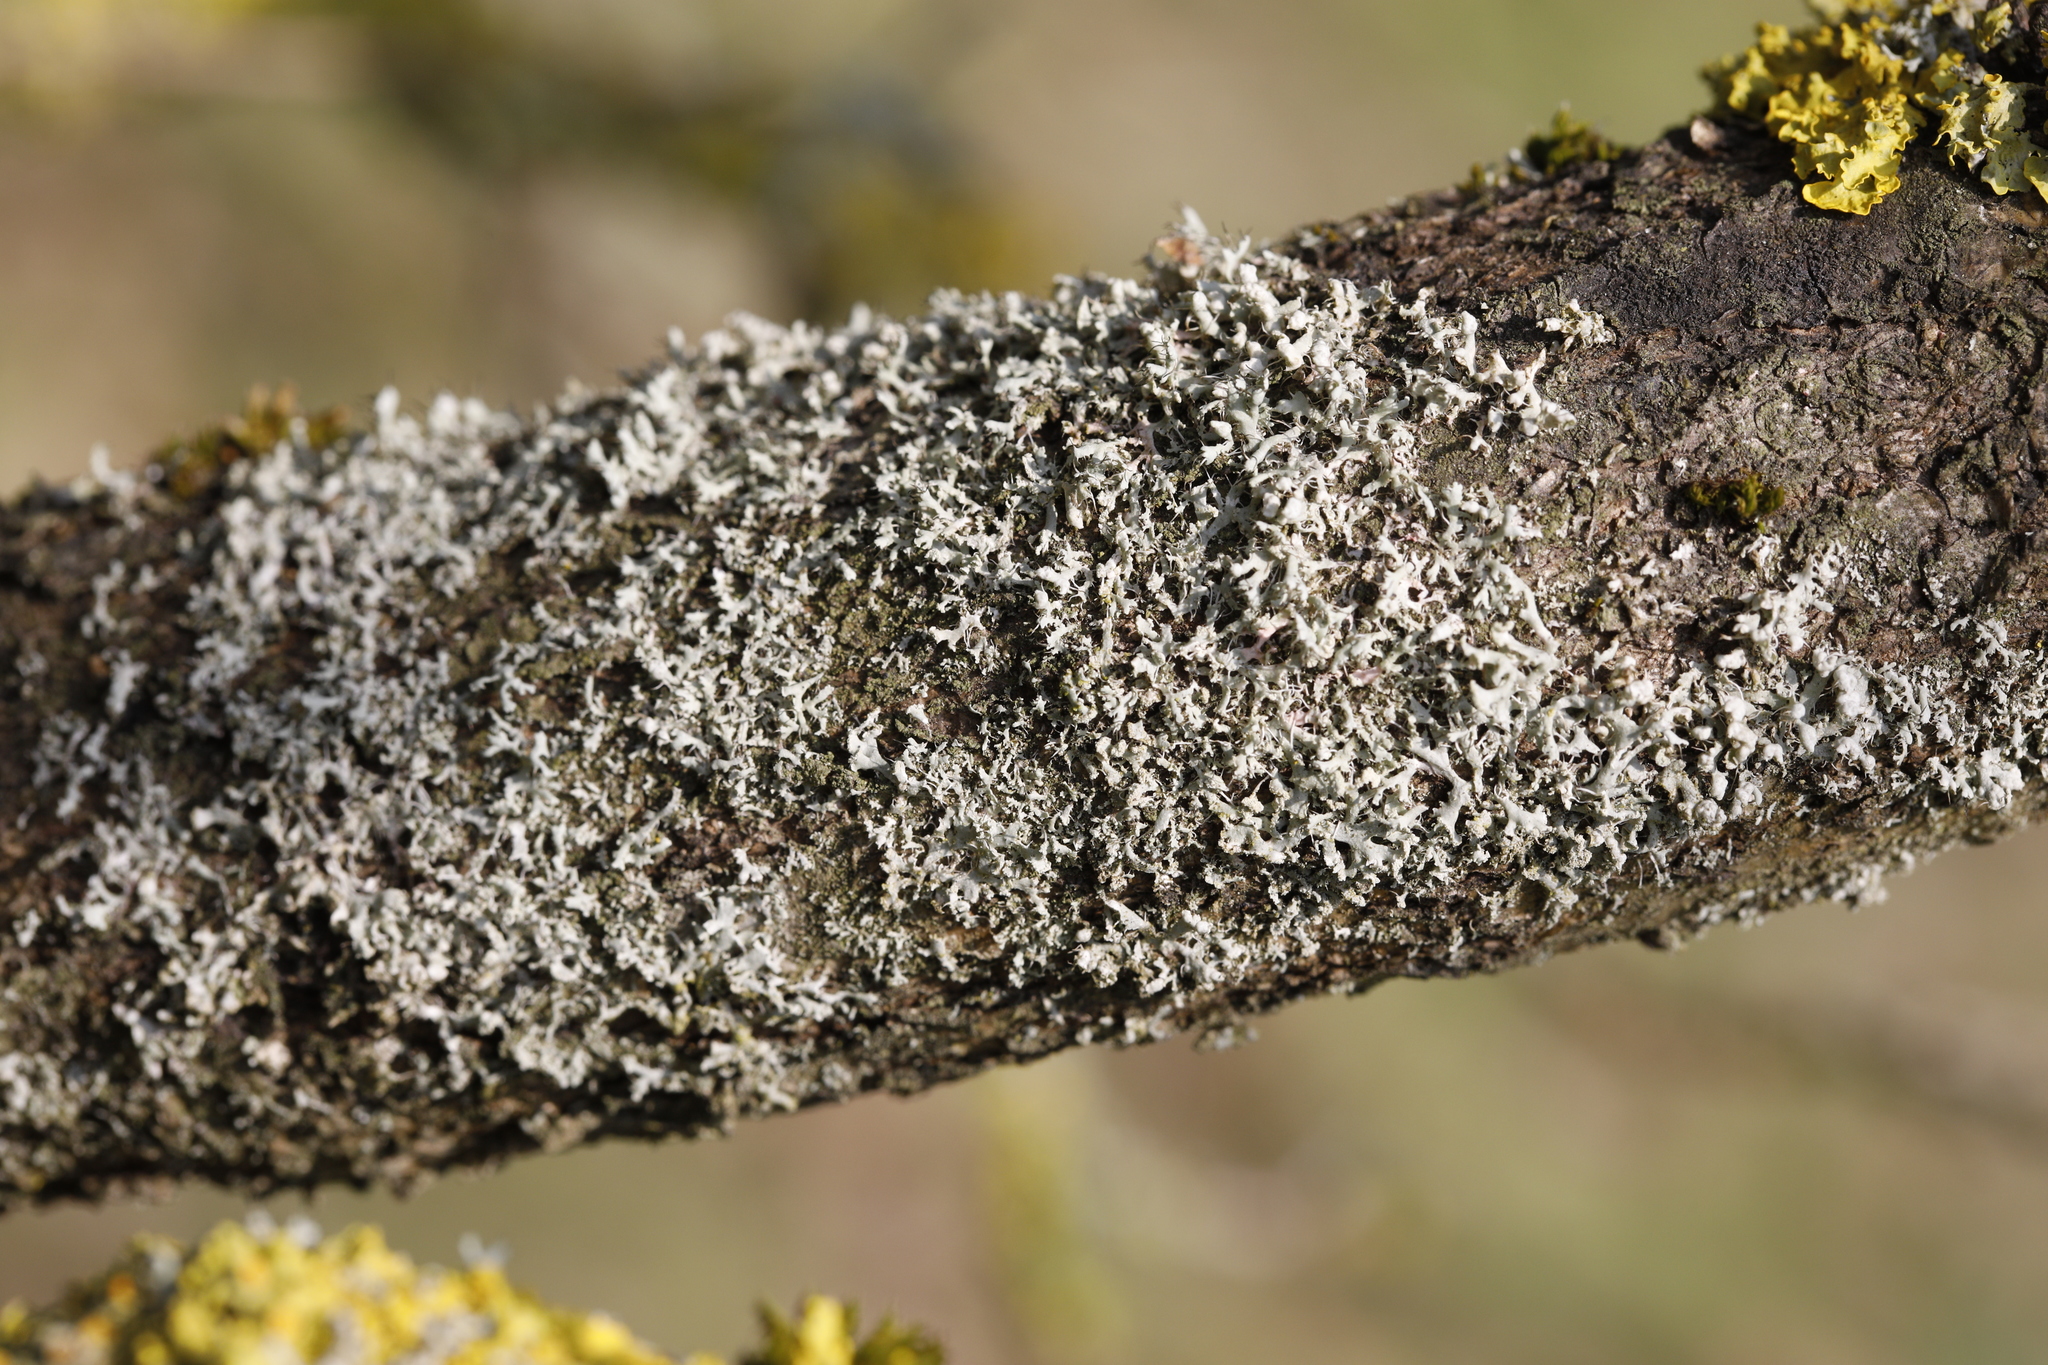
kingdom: Fungi
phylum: Ascomycota
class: Lecanoromycetes
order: Caliciales
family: Physciaceae
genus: Physcia
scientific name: Physcia adscendens
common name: Hooded rosette lichen
